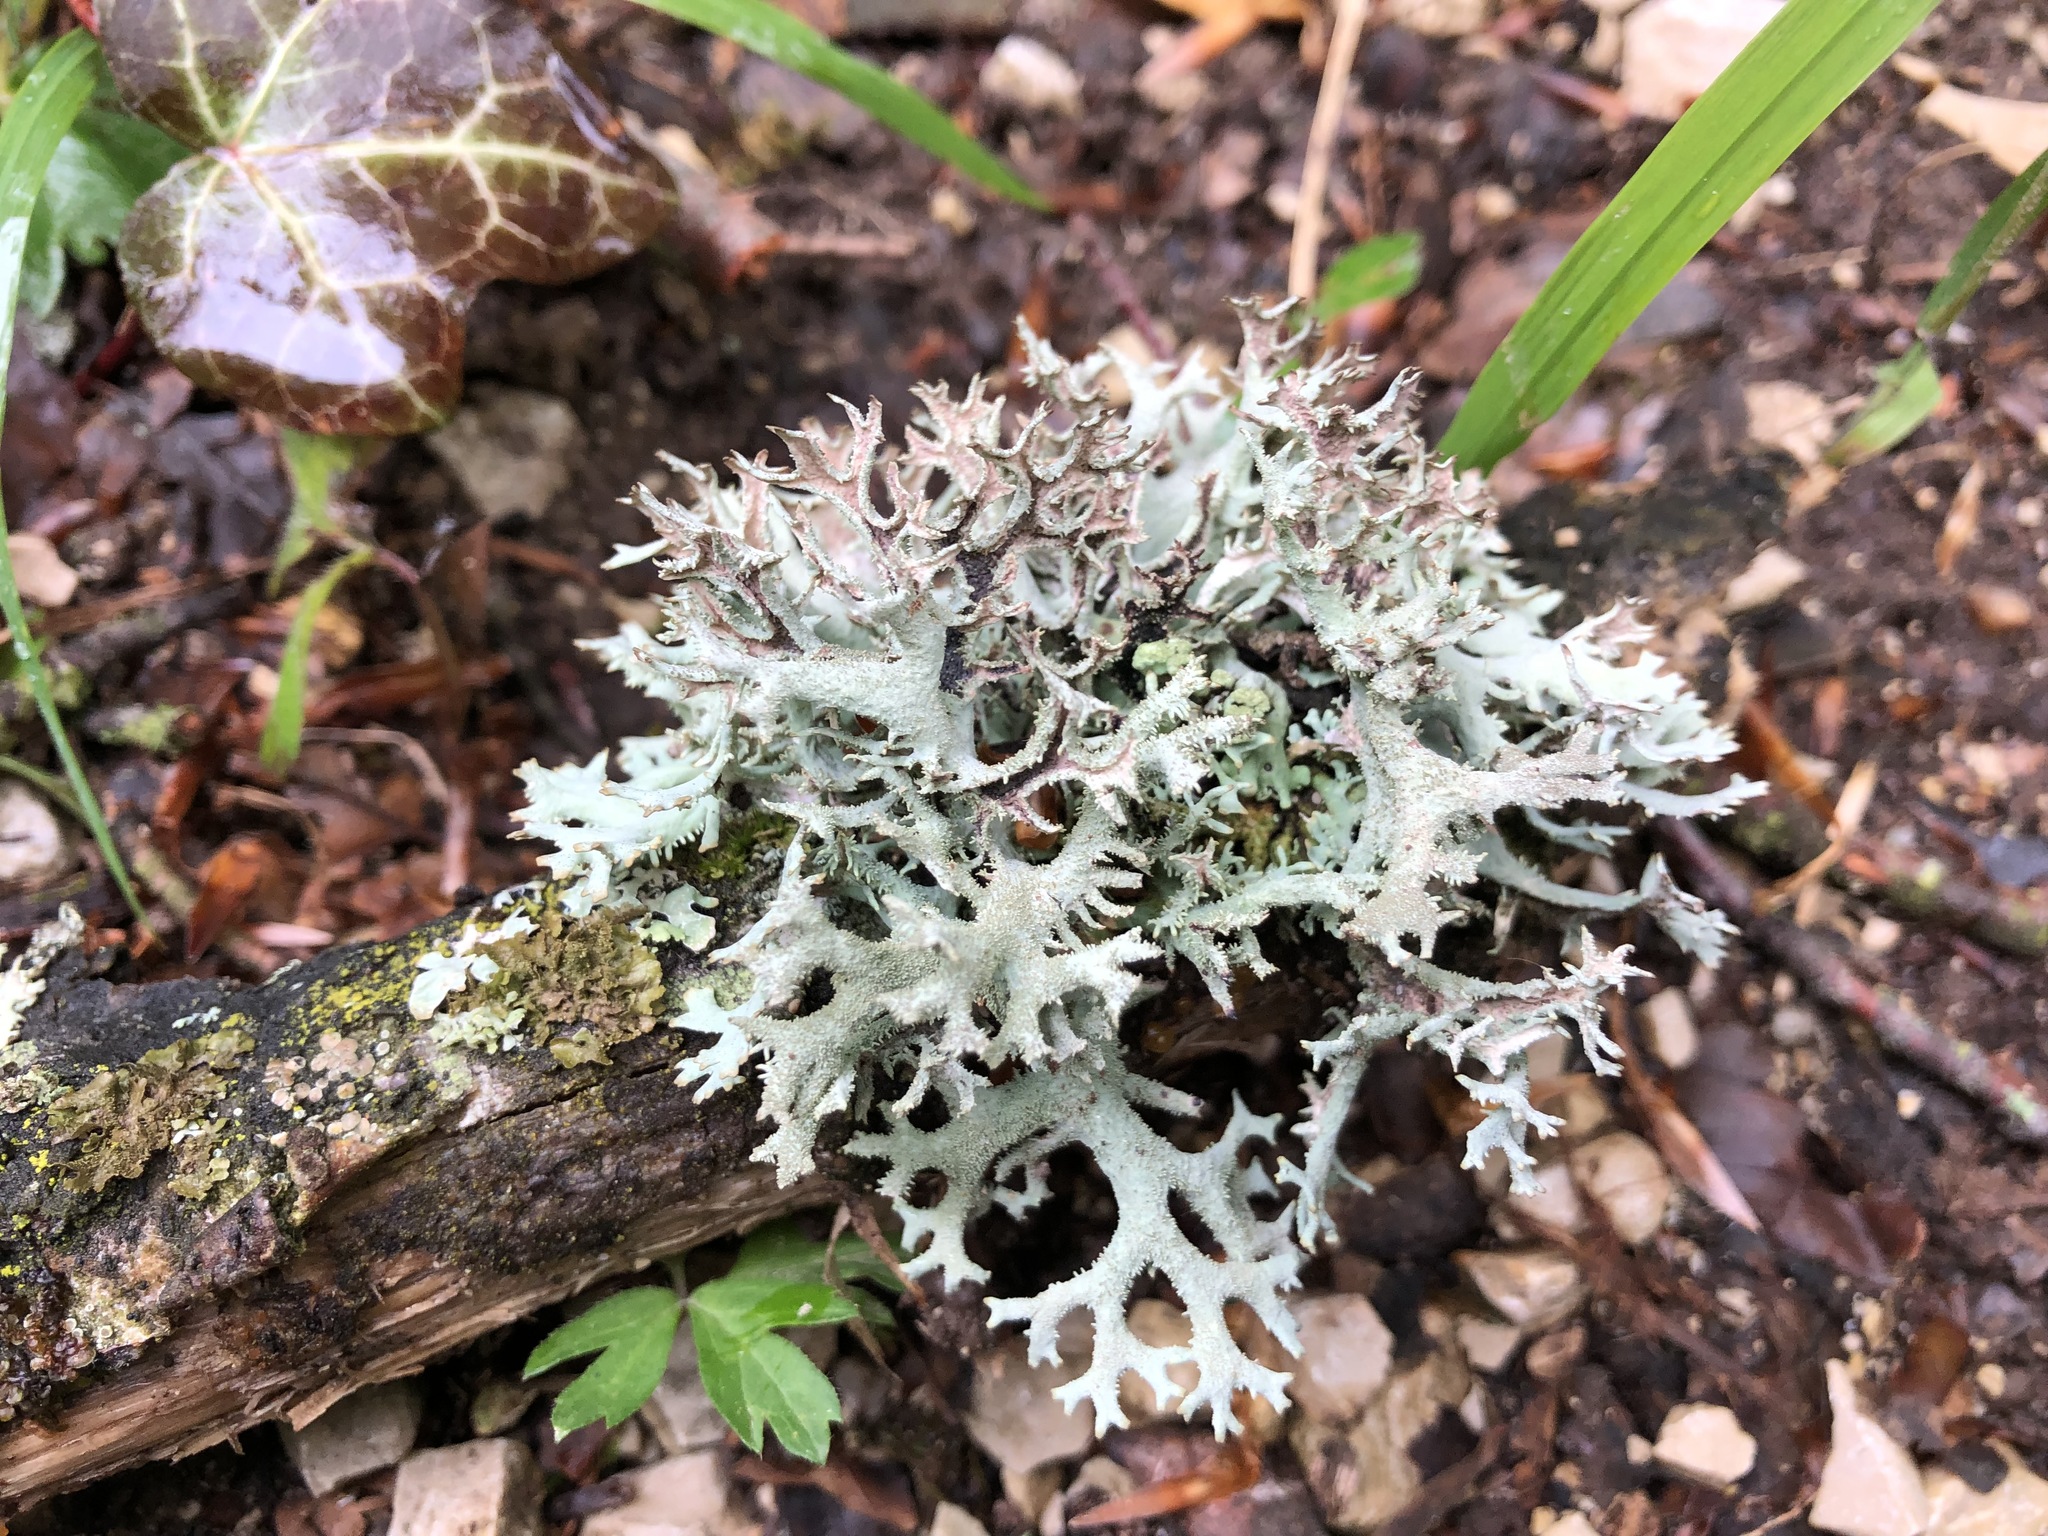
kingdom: Fungi
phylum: Ascomycota
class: Lecanoromycetes
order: Lecanorales
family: Parmeliaceae
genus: Pseudevernia
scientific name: Pseudevernia furfuracea
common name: Tree moss
